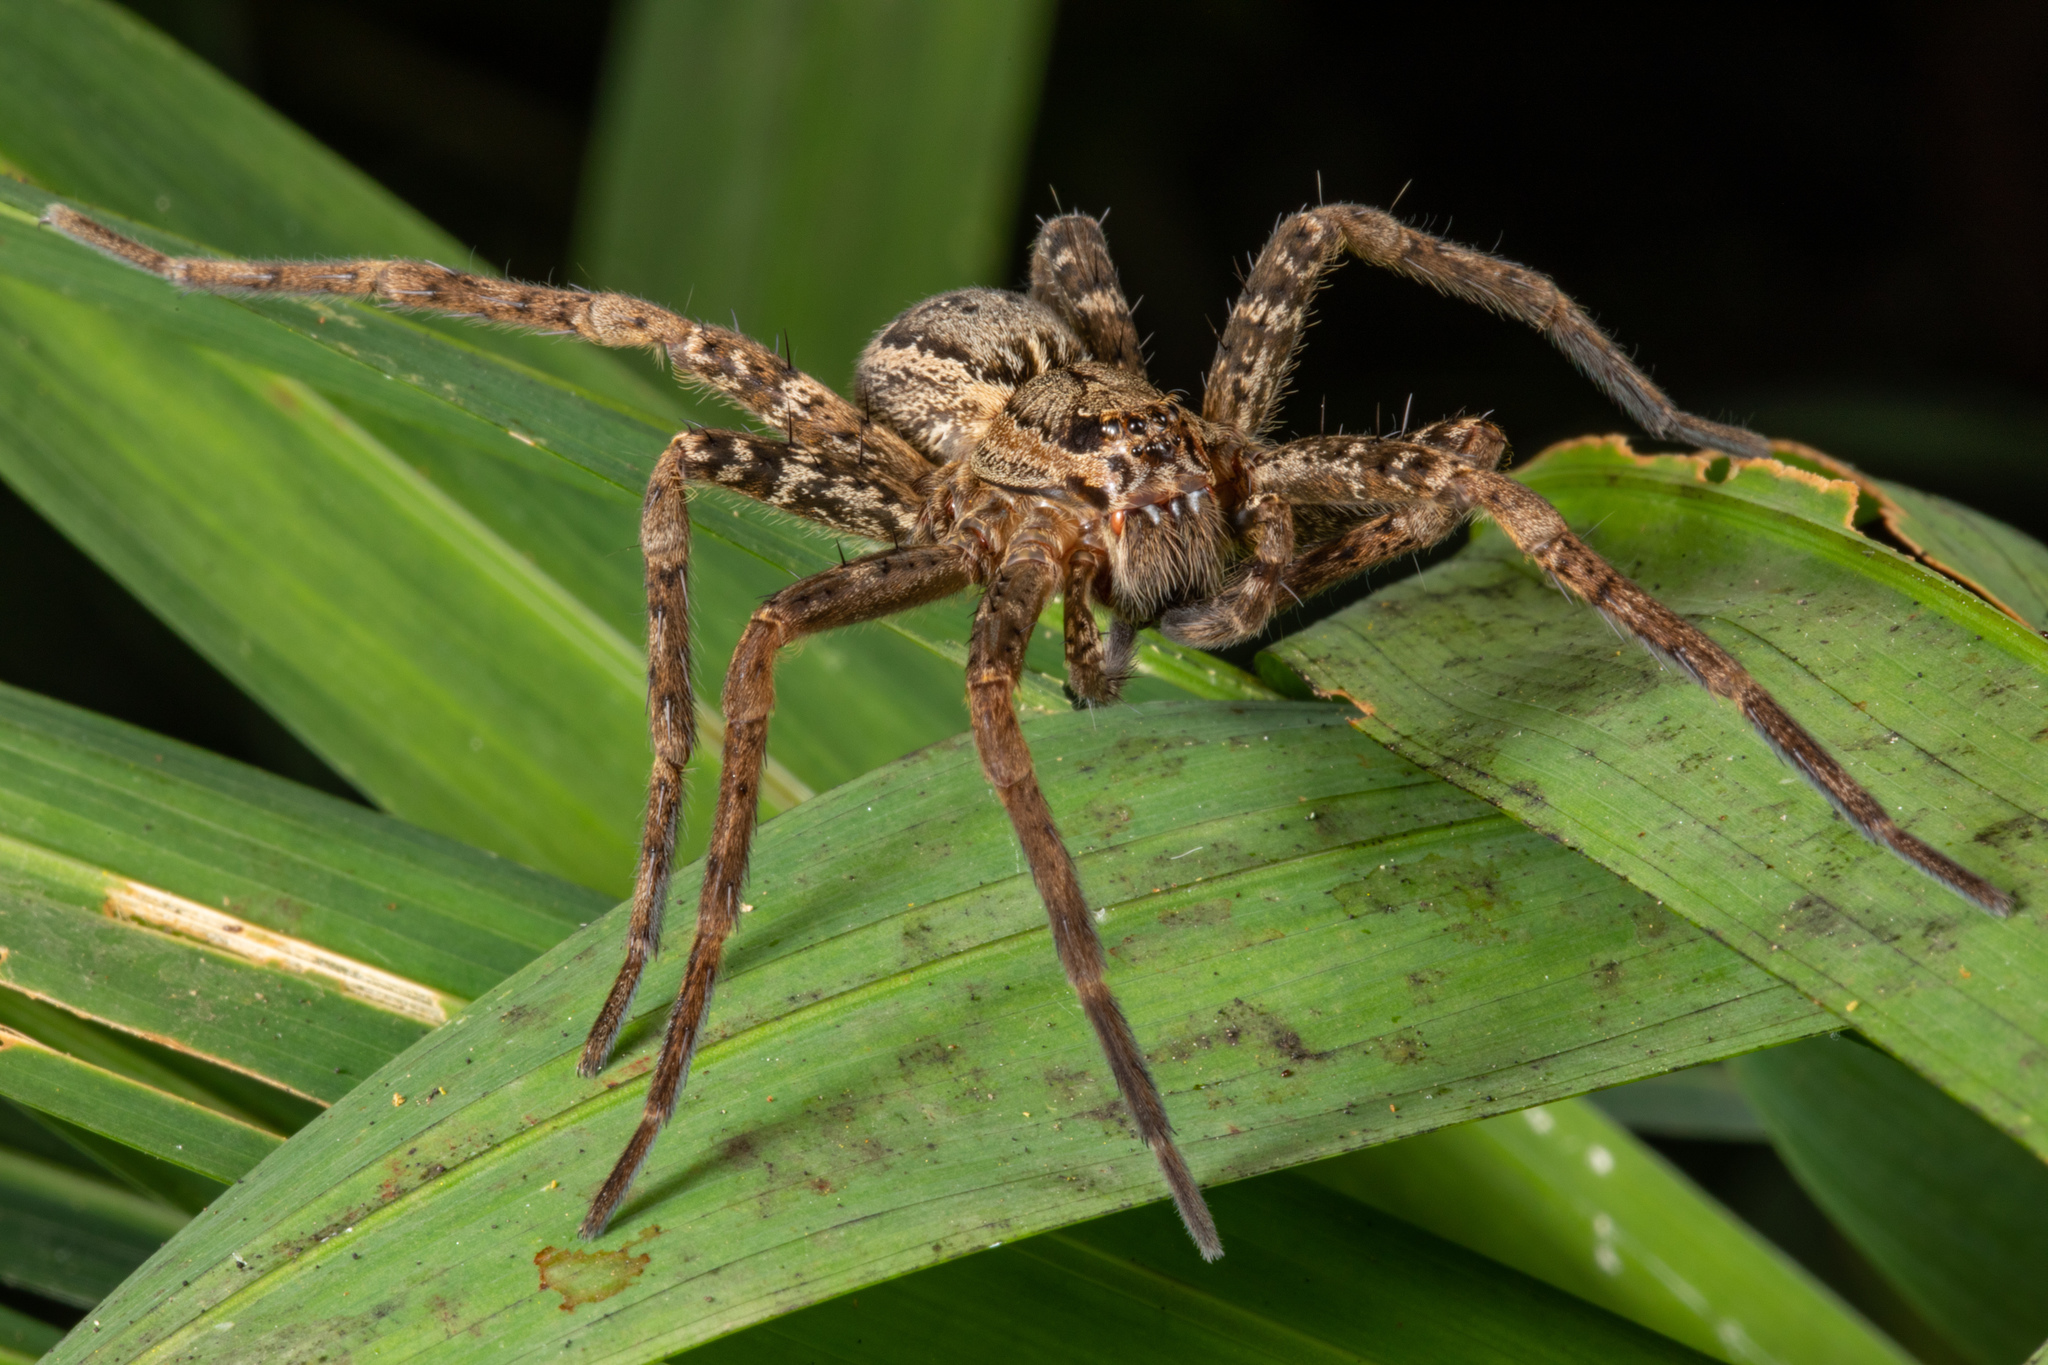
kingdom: Animalia
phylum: Arthropoda
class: Arachnida
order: Araneae
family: Pisauridae
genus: Dolomedes
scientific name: Dolomedes dondalei
